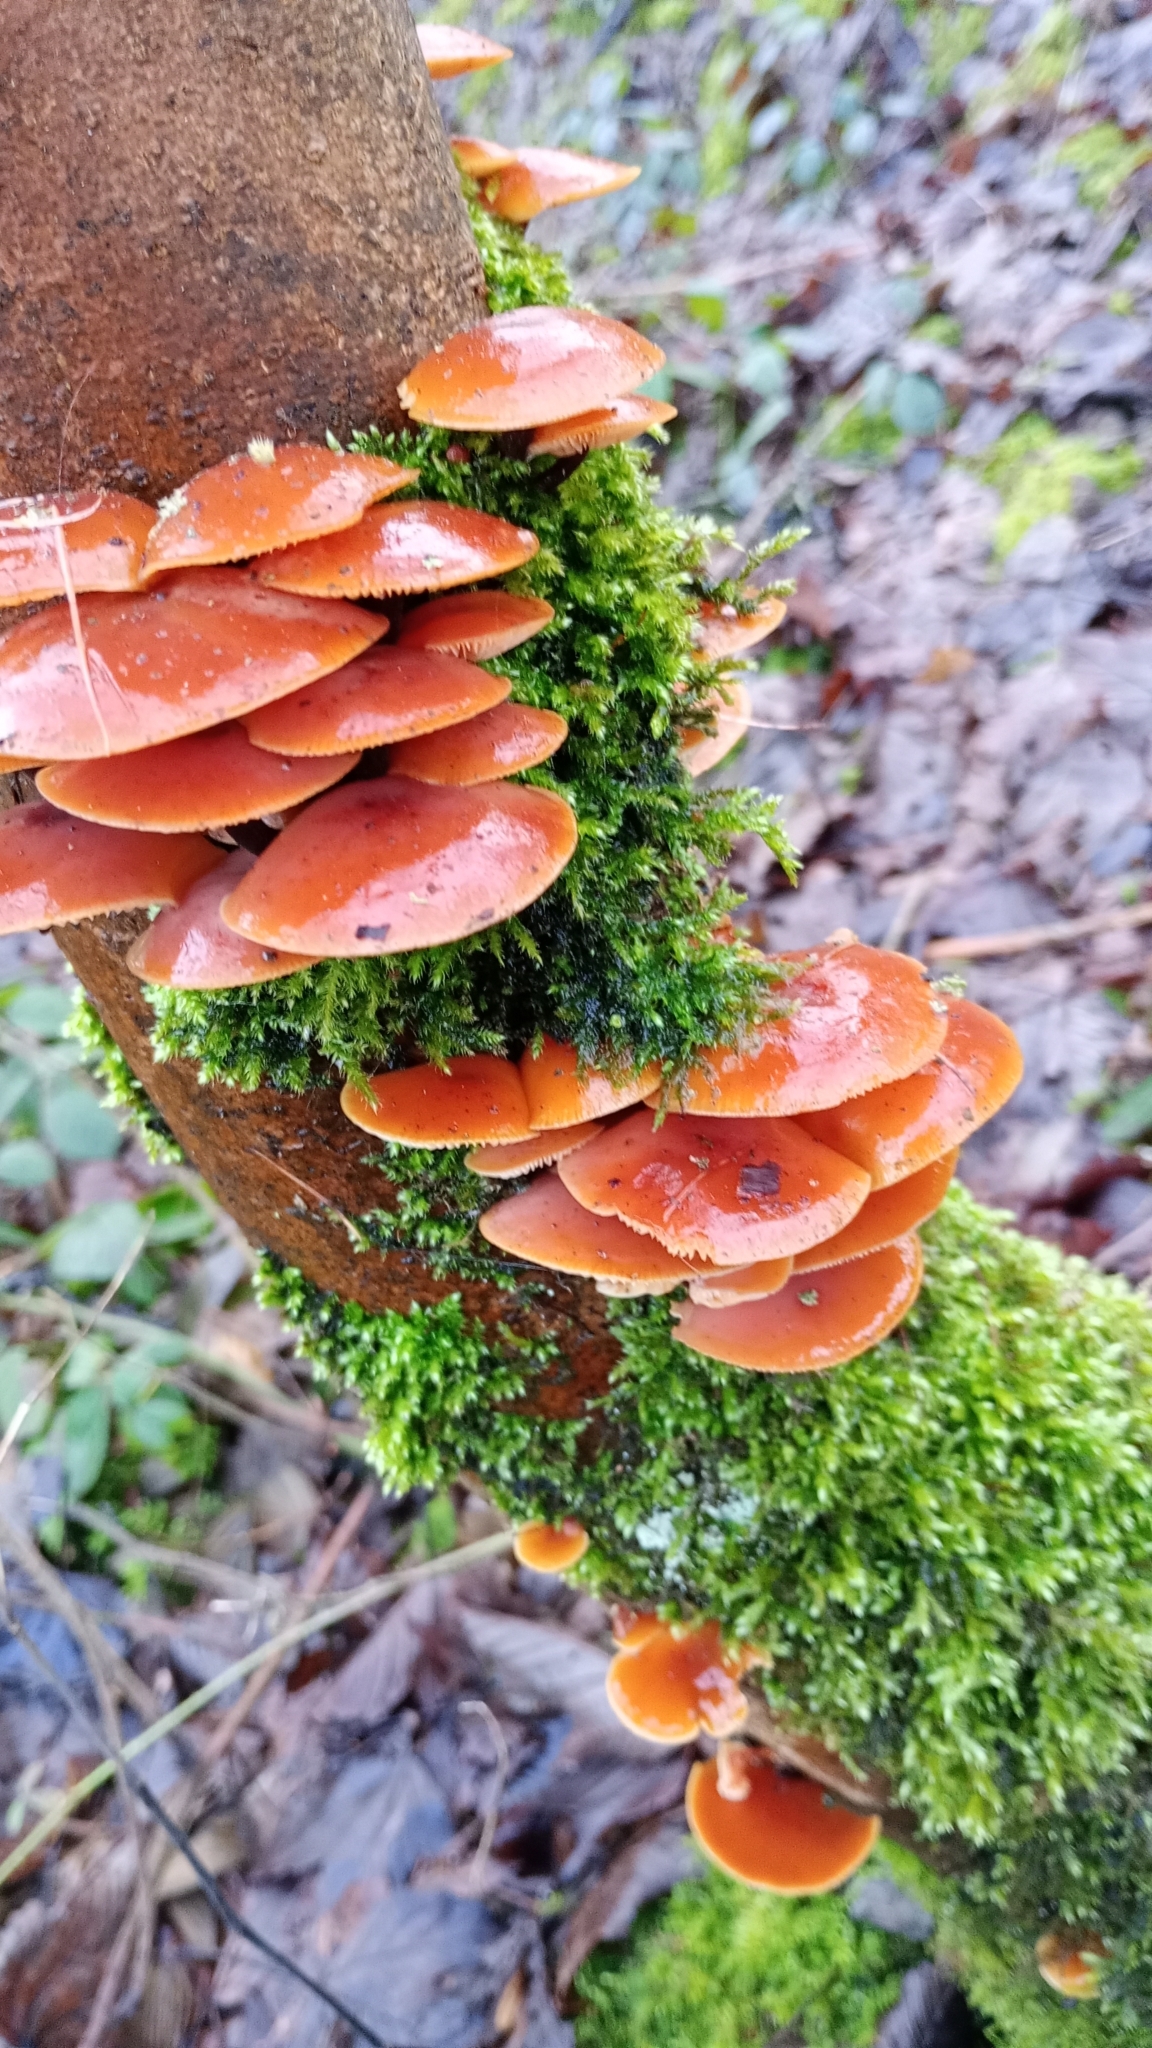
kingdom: Fungi
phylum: Basidiomycota
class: Agaricomycetes
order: Agaricales
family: Physalacriaceae
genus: Flammulina
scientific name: Flammulina
